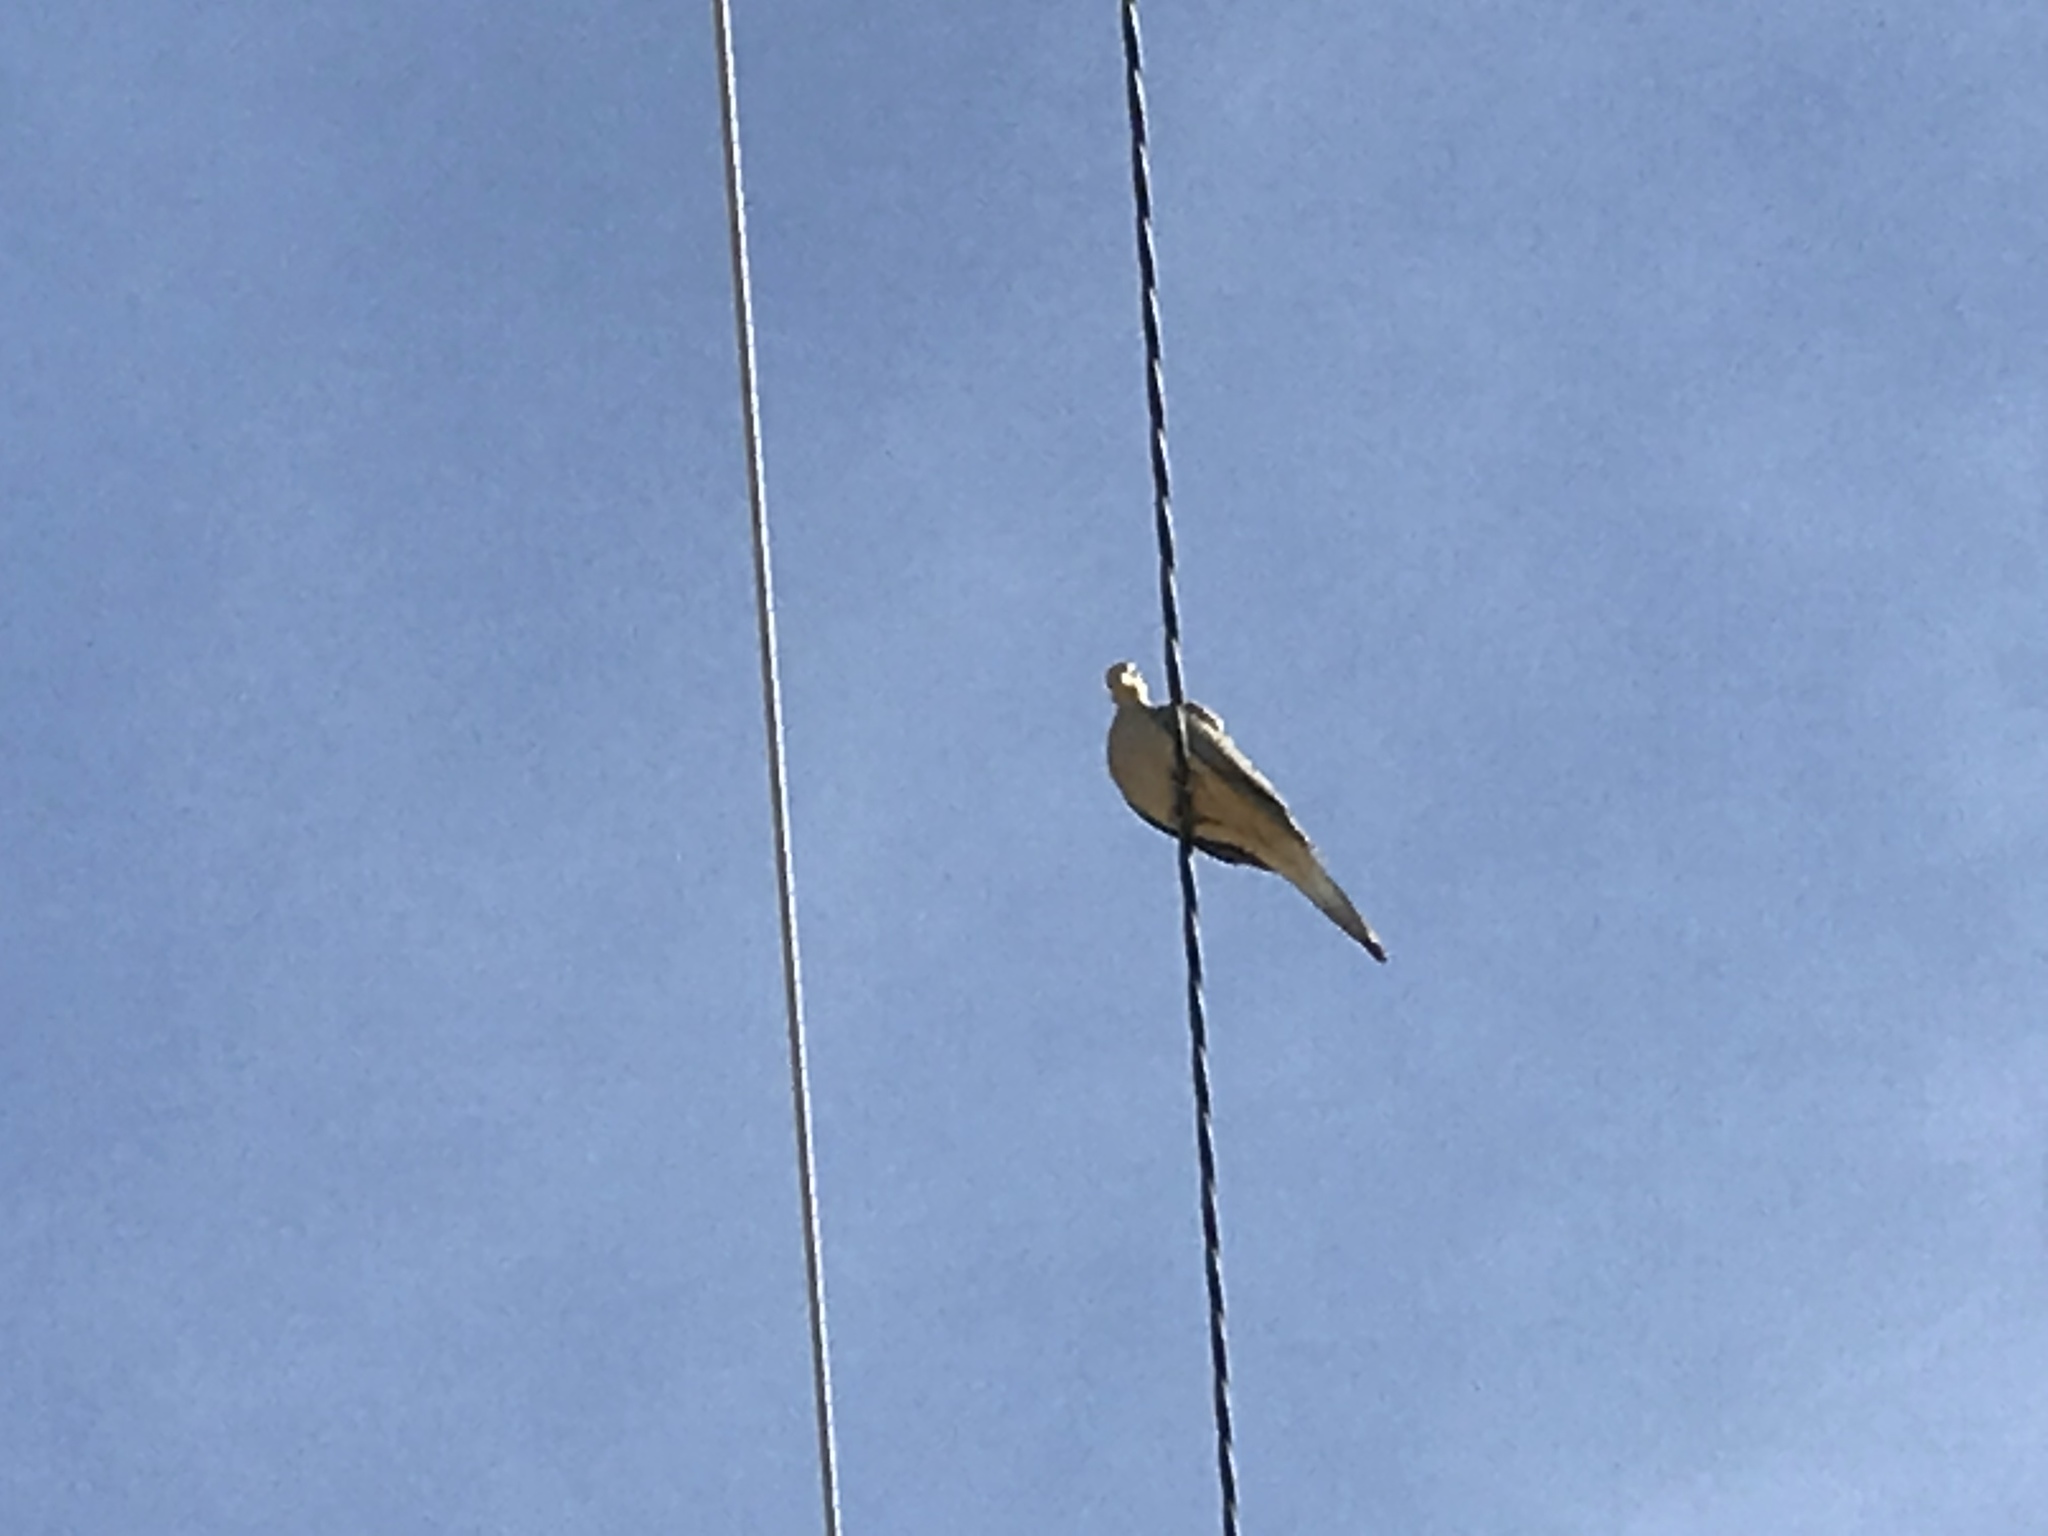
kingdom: Animalia
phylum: Chordata
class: Aves
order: Columbiformes
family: Columbidae
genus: Zenaida
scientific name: Zenaida macroura
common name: Mourning dove
